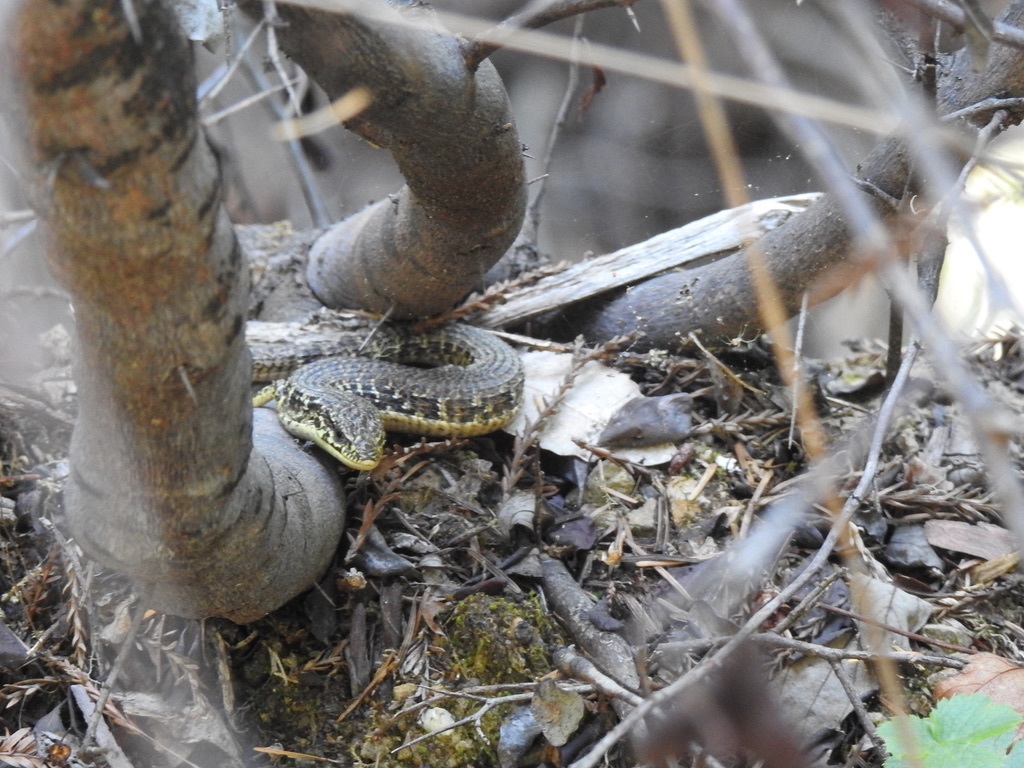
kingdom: Animalia
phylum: Chordata
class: Squamata
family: Anguidae
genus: Elgaria
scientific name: Elgaria coerulea
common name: Northern alligator lizard
